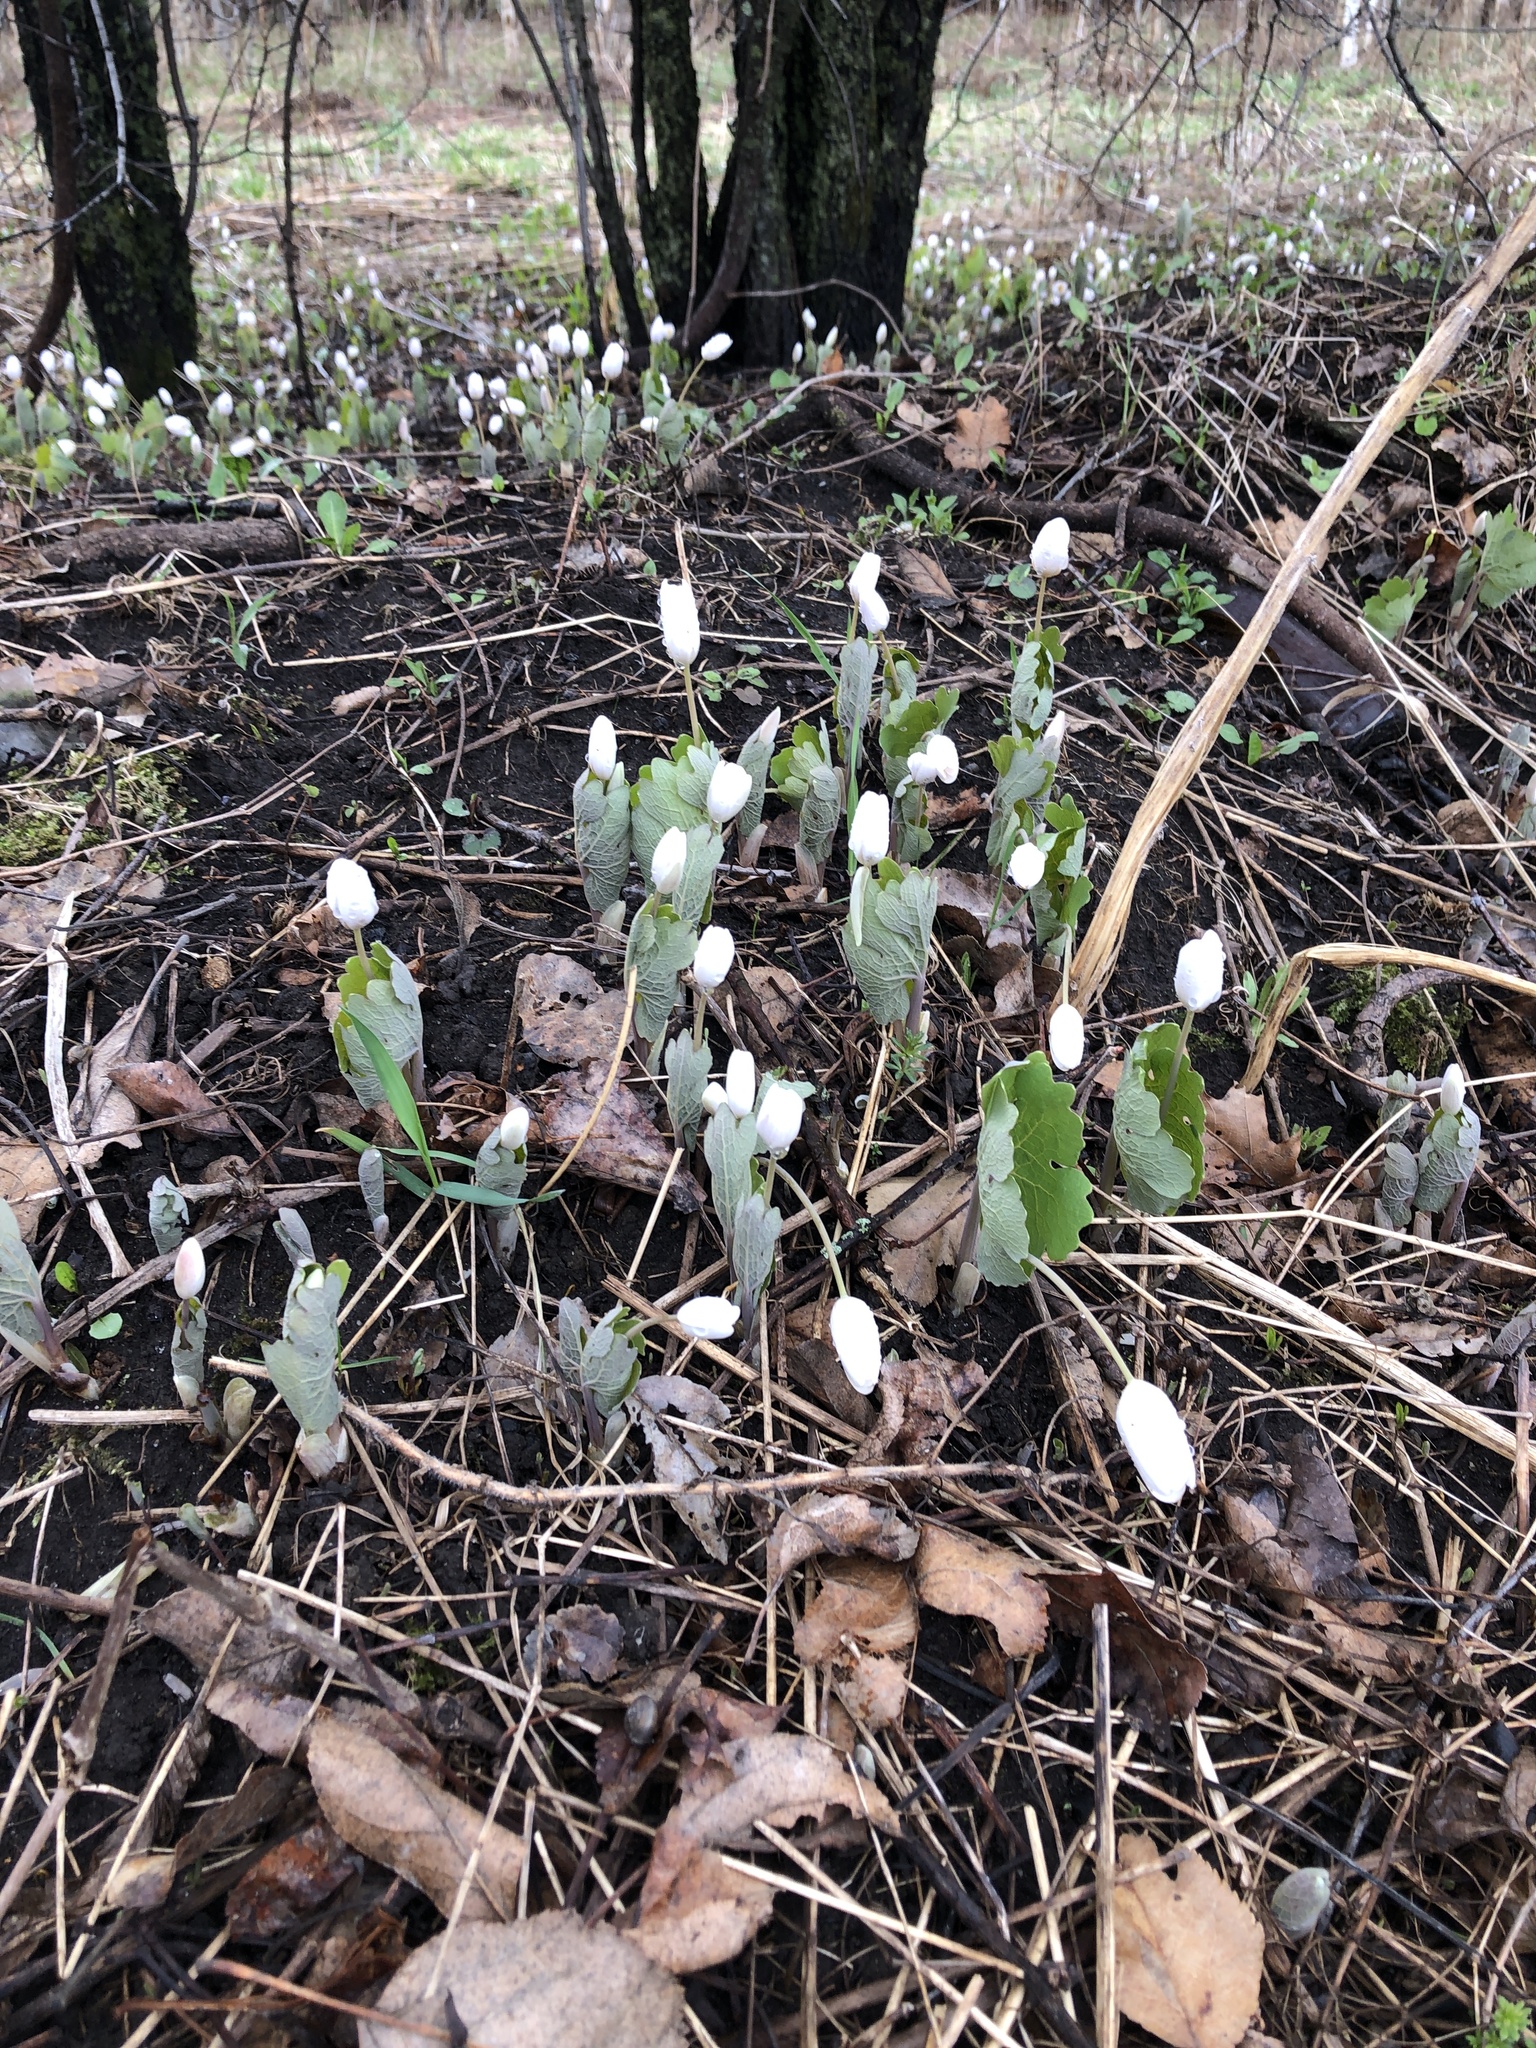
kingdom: Plantae
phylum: Tracheophyta
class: Magnoliopsida
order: Ranunculales
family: Papaveraceae
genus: Sanguinaria
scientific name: Sanguinaria canadensis
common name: Bloodroot
